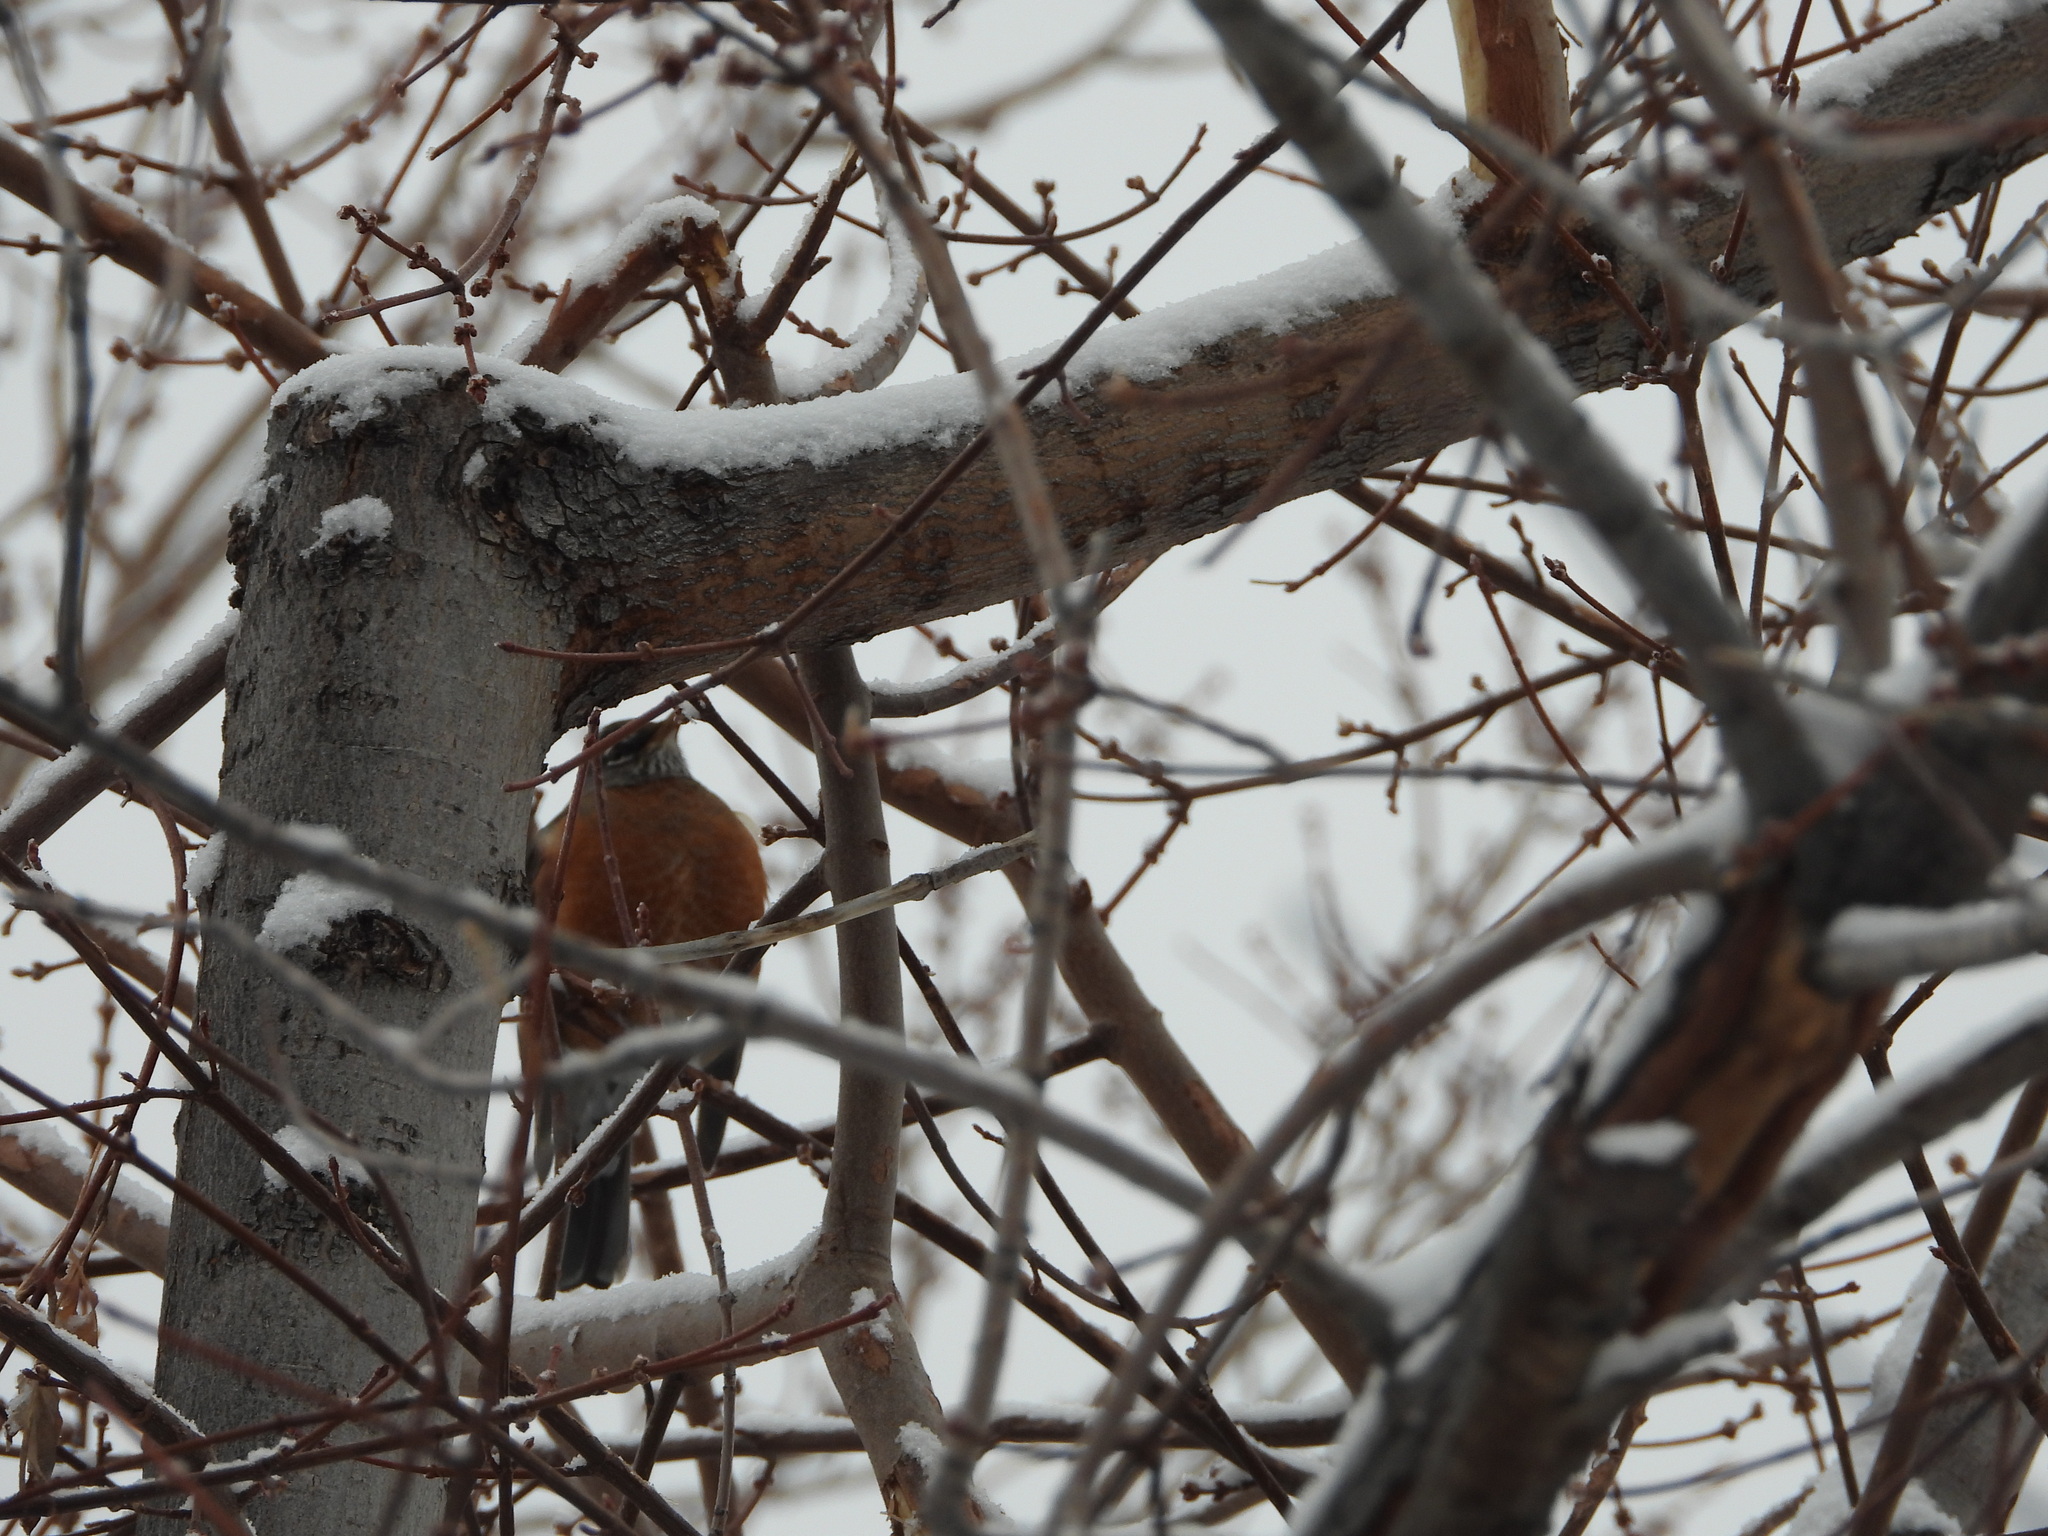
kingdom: Animalia
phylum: Chordata
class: Aves
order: Passeriformes
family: Turdidae
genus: Turdus
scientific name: Turdus migratorius
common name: American robin
